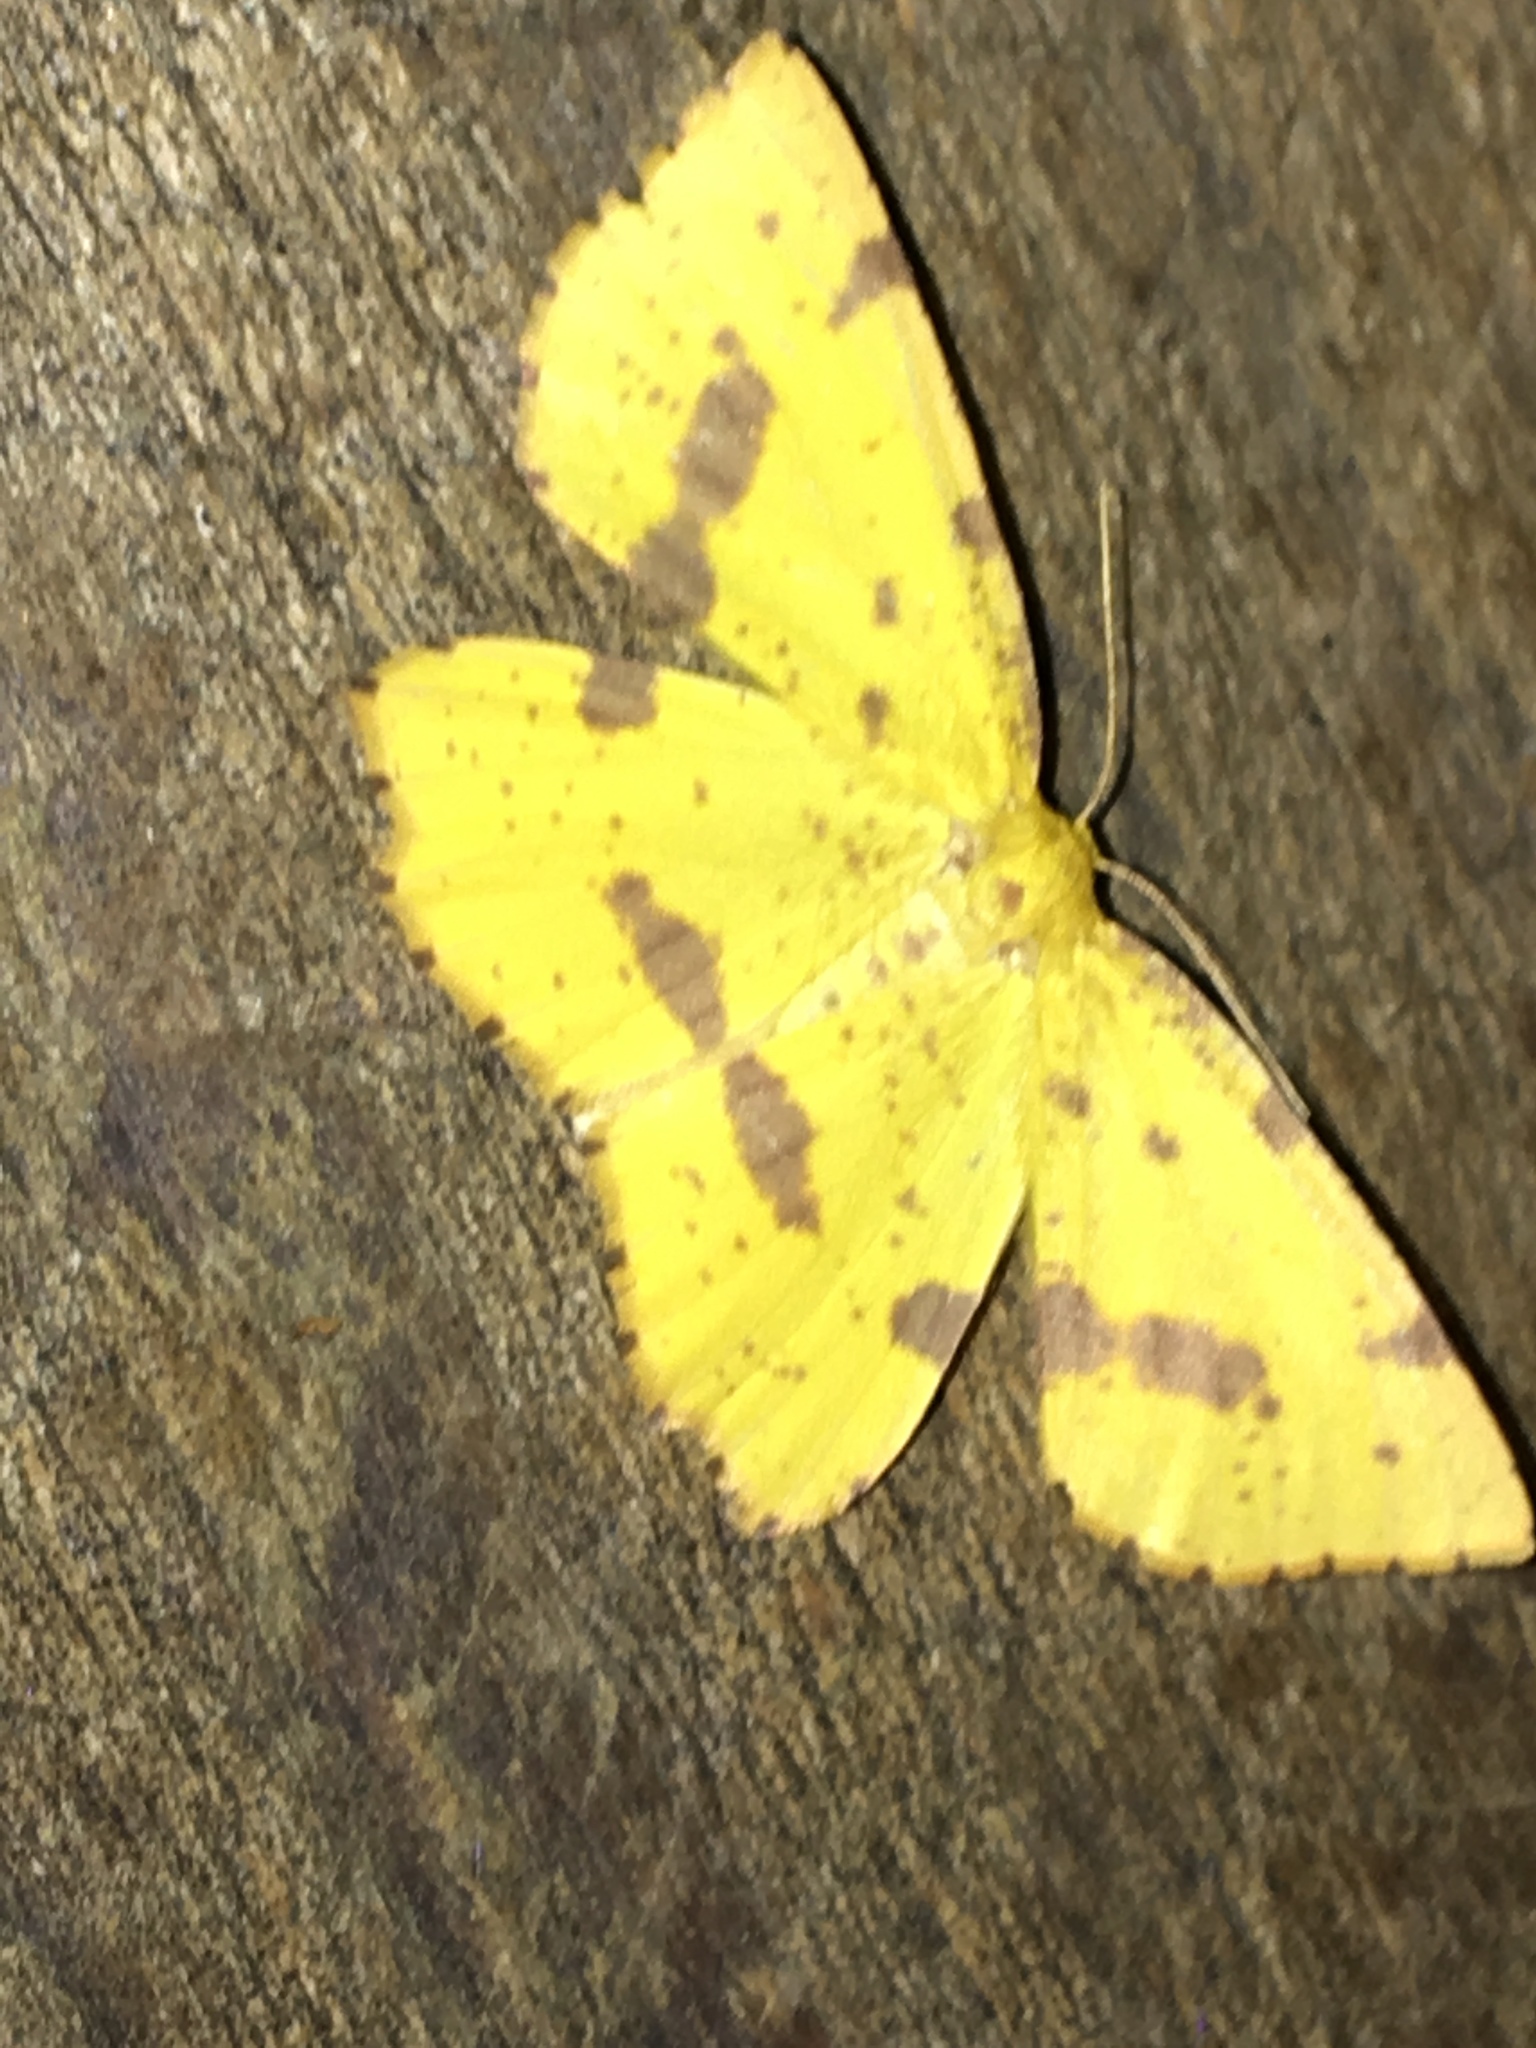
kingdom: Animalia
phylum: Arthropoda
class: Insecta
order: Lepidoptera
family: Geometridae
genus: Xanthotype
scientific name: Xanthotype
